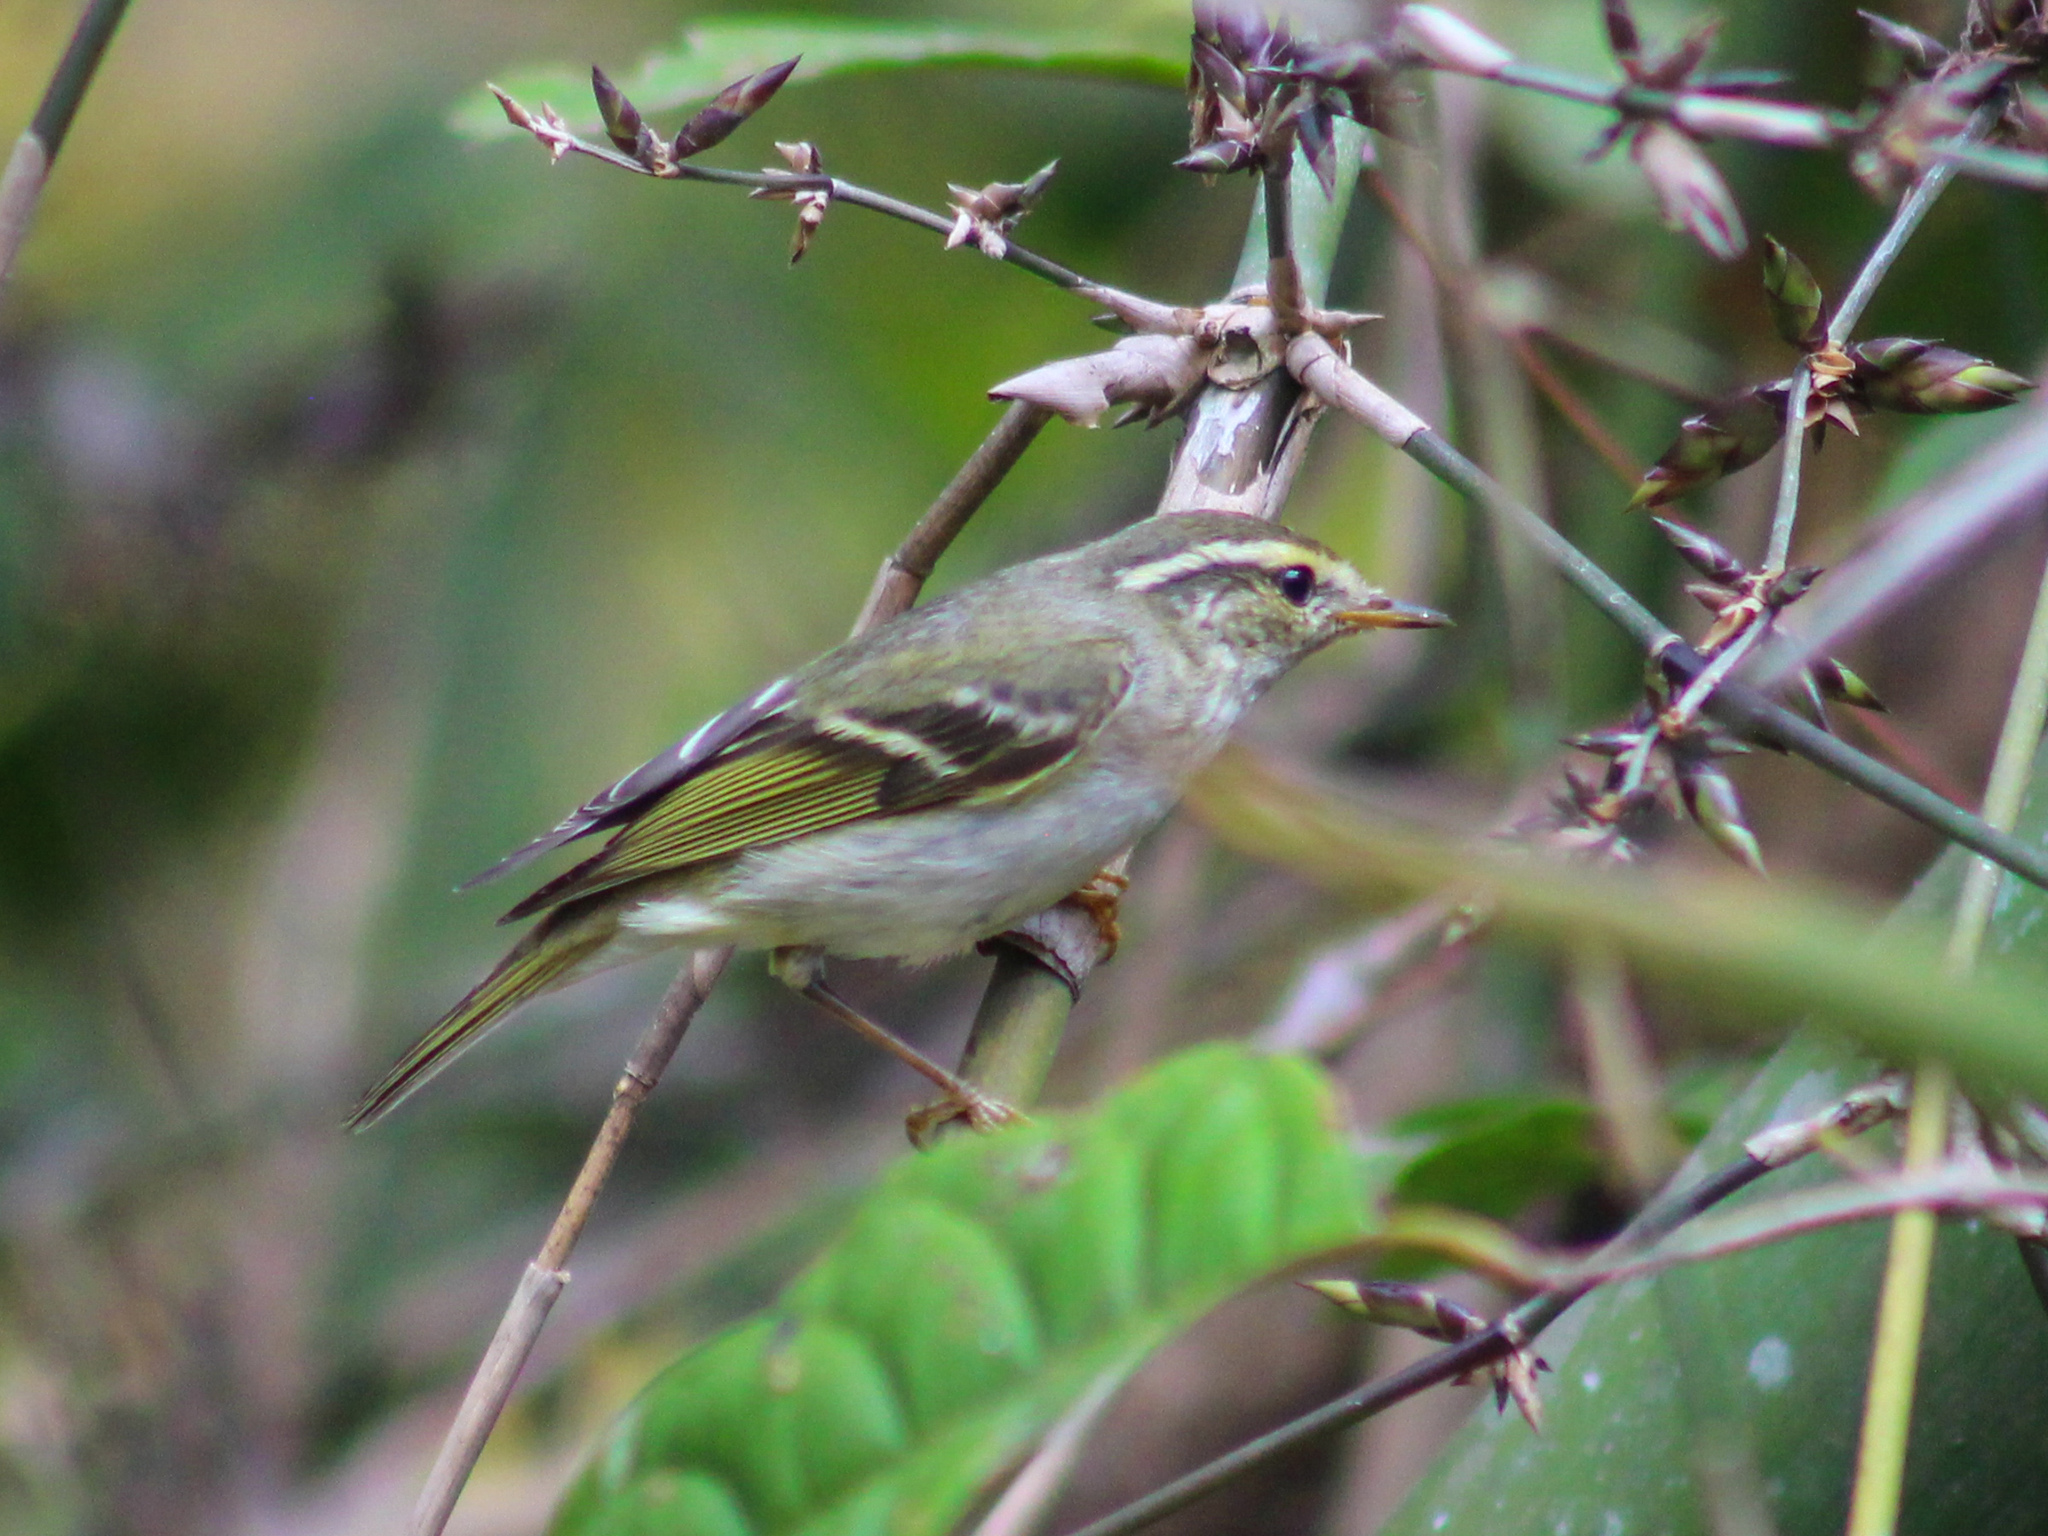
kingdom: Animalia
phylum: Chordata
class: Aves
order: Passeriformes
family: Phylloscopidae
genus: Phylloscopus
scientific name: Phylloscopus inornatus
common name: Yellow-browed warbler
